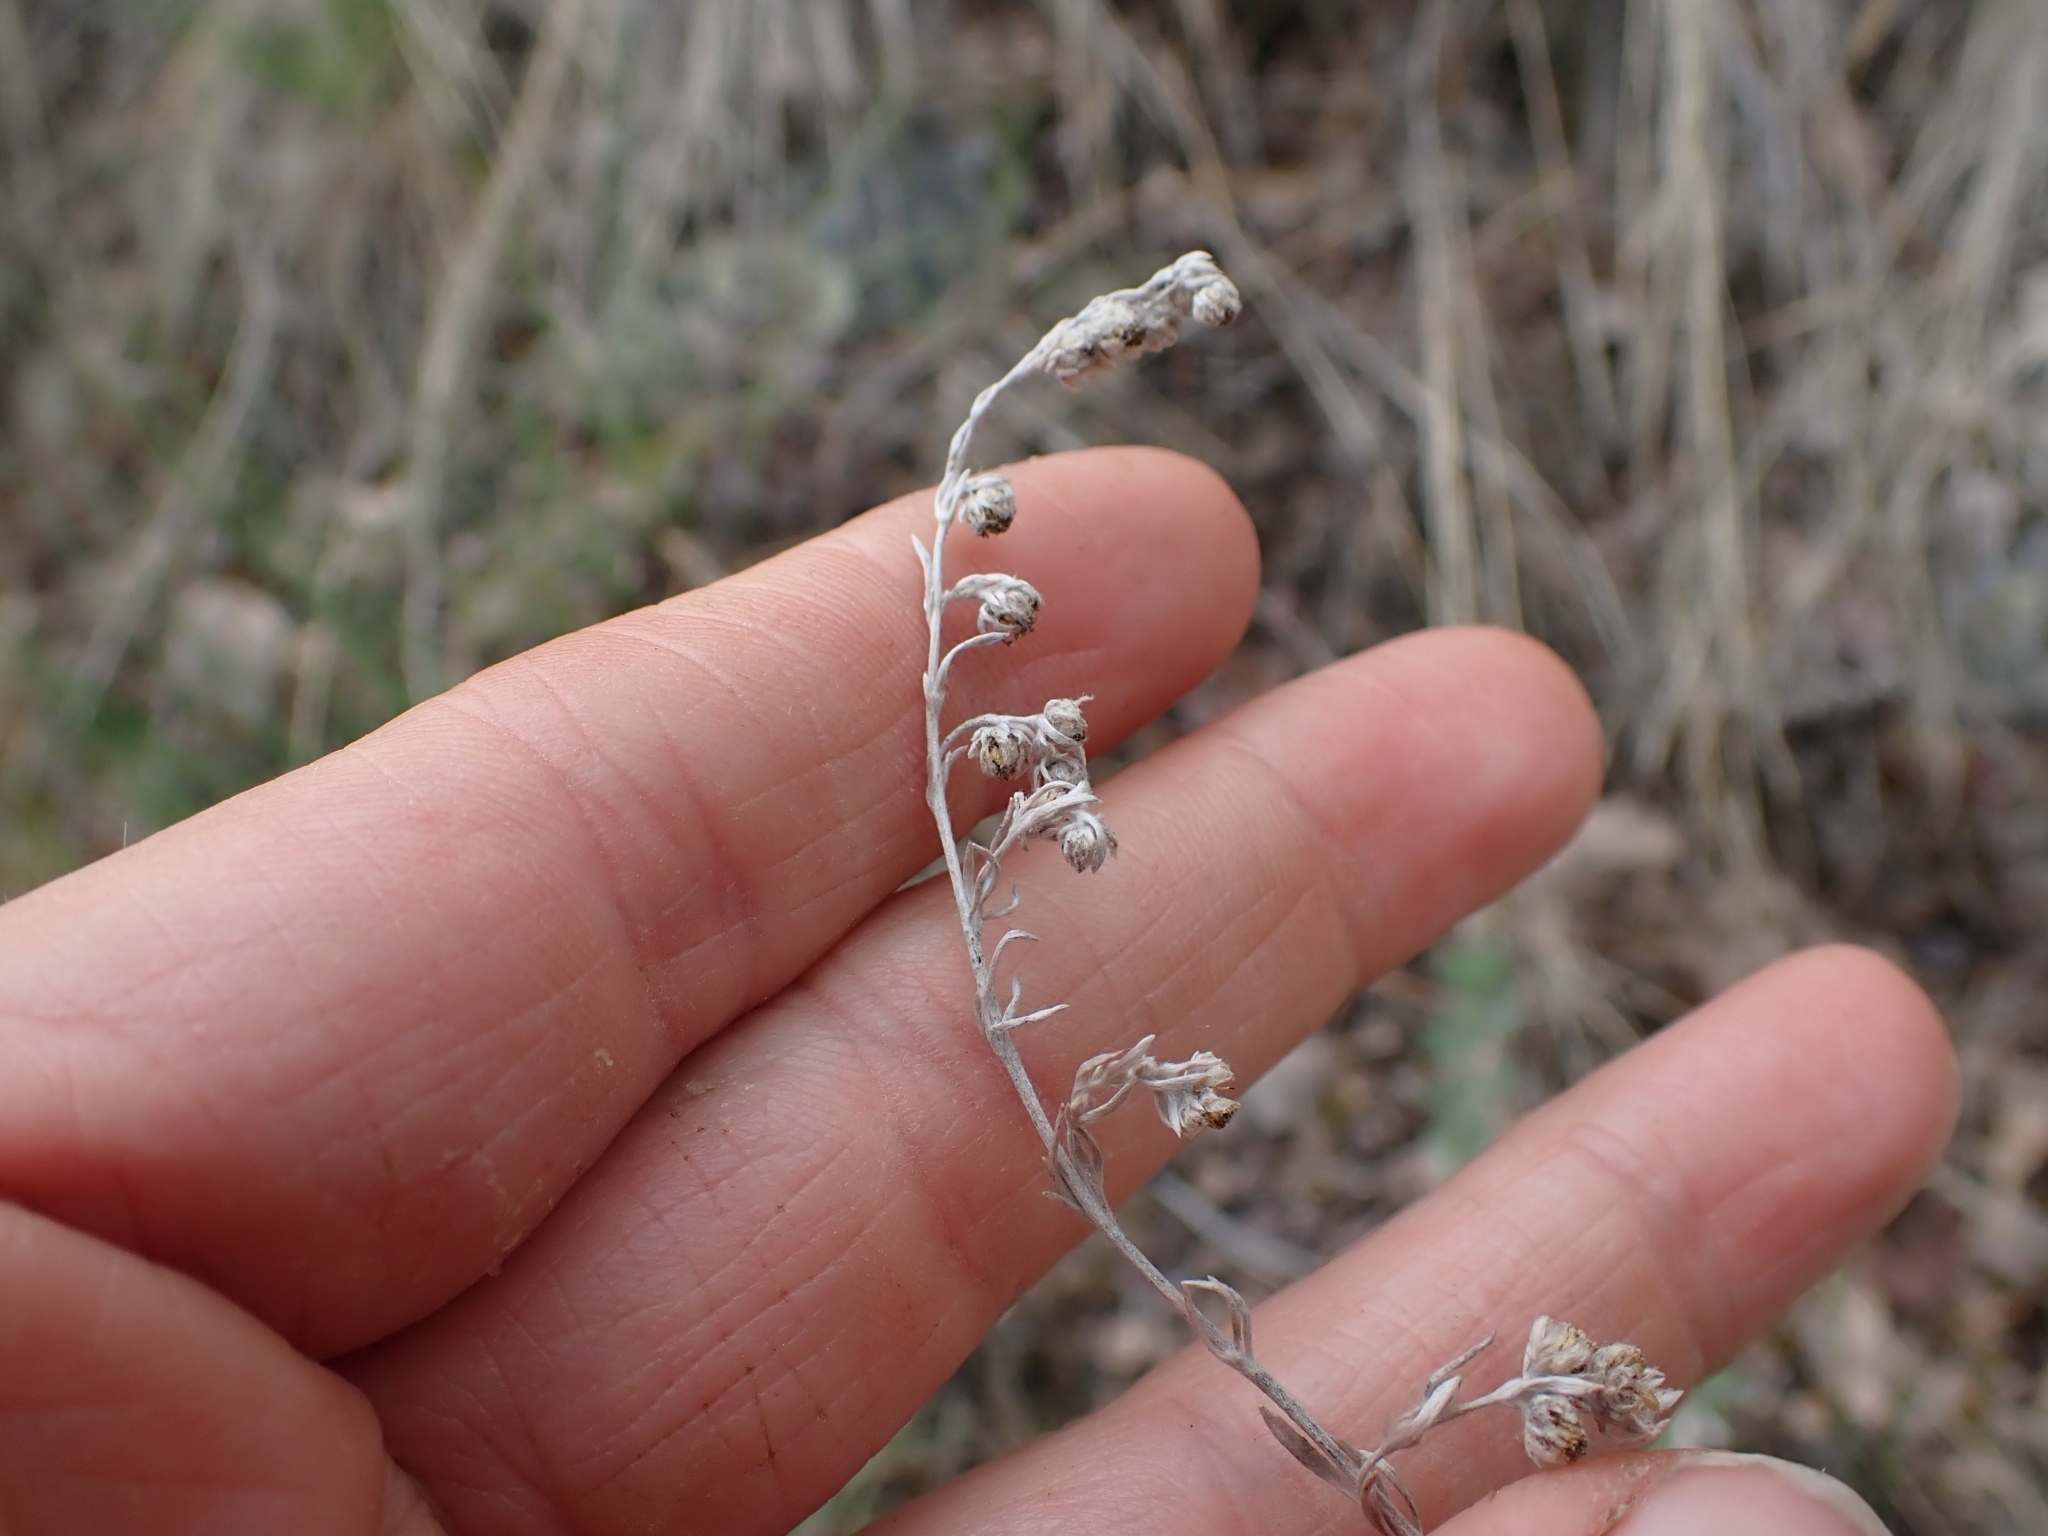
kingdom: Plantae
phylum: Tracheophyta
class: Magnoliopsida
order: Asterales
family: Asteraceae
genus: Artemisia
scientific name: Artemisia frigida
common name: Prairie sagewort
